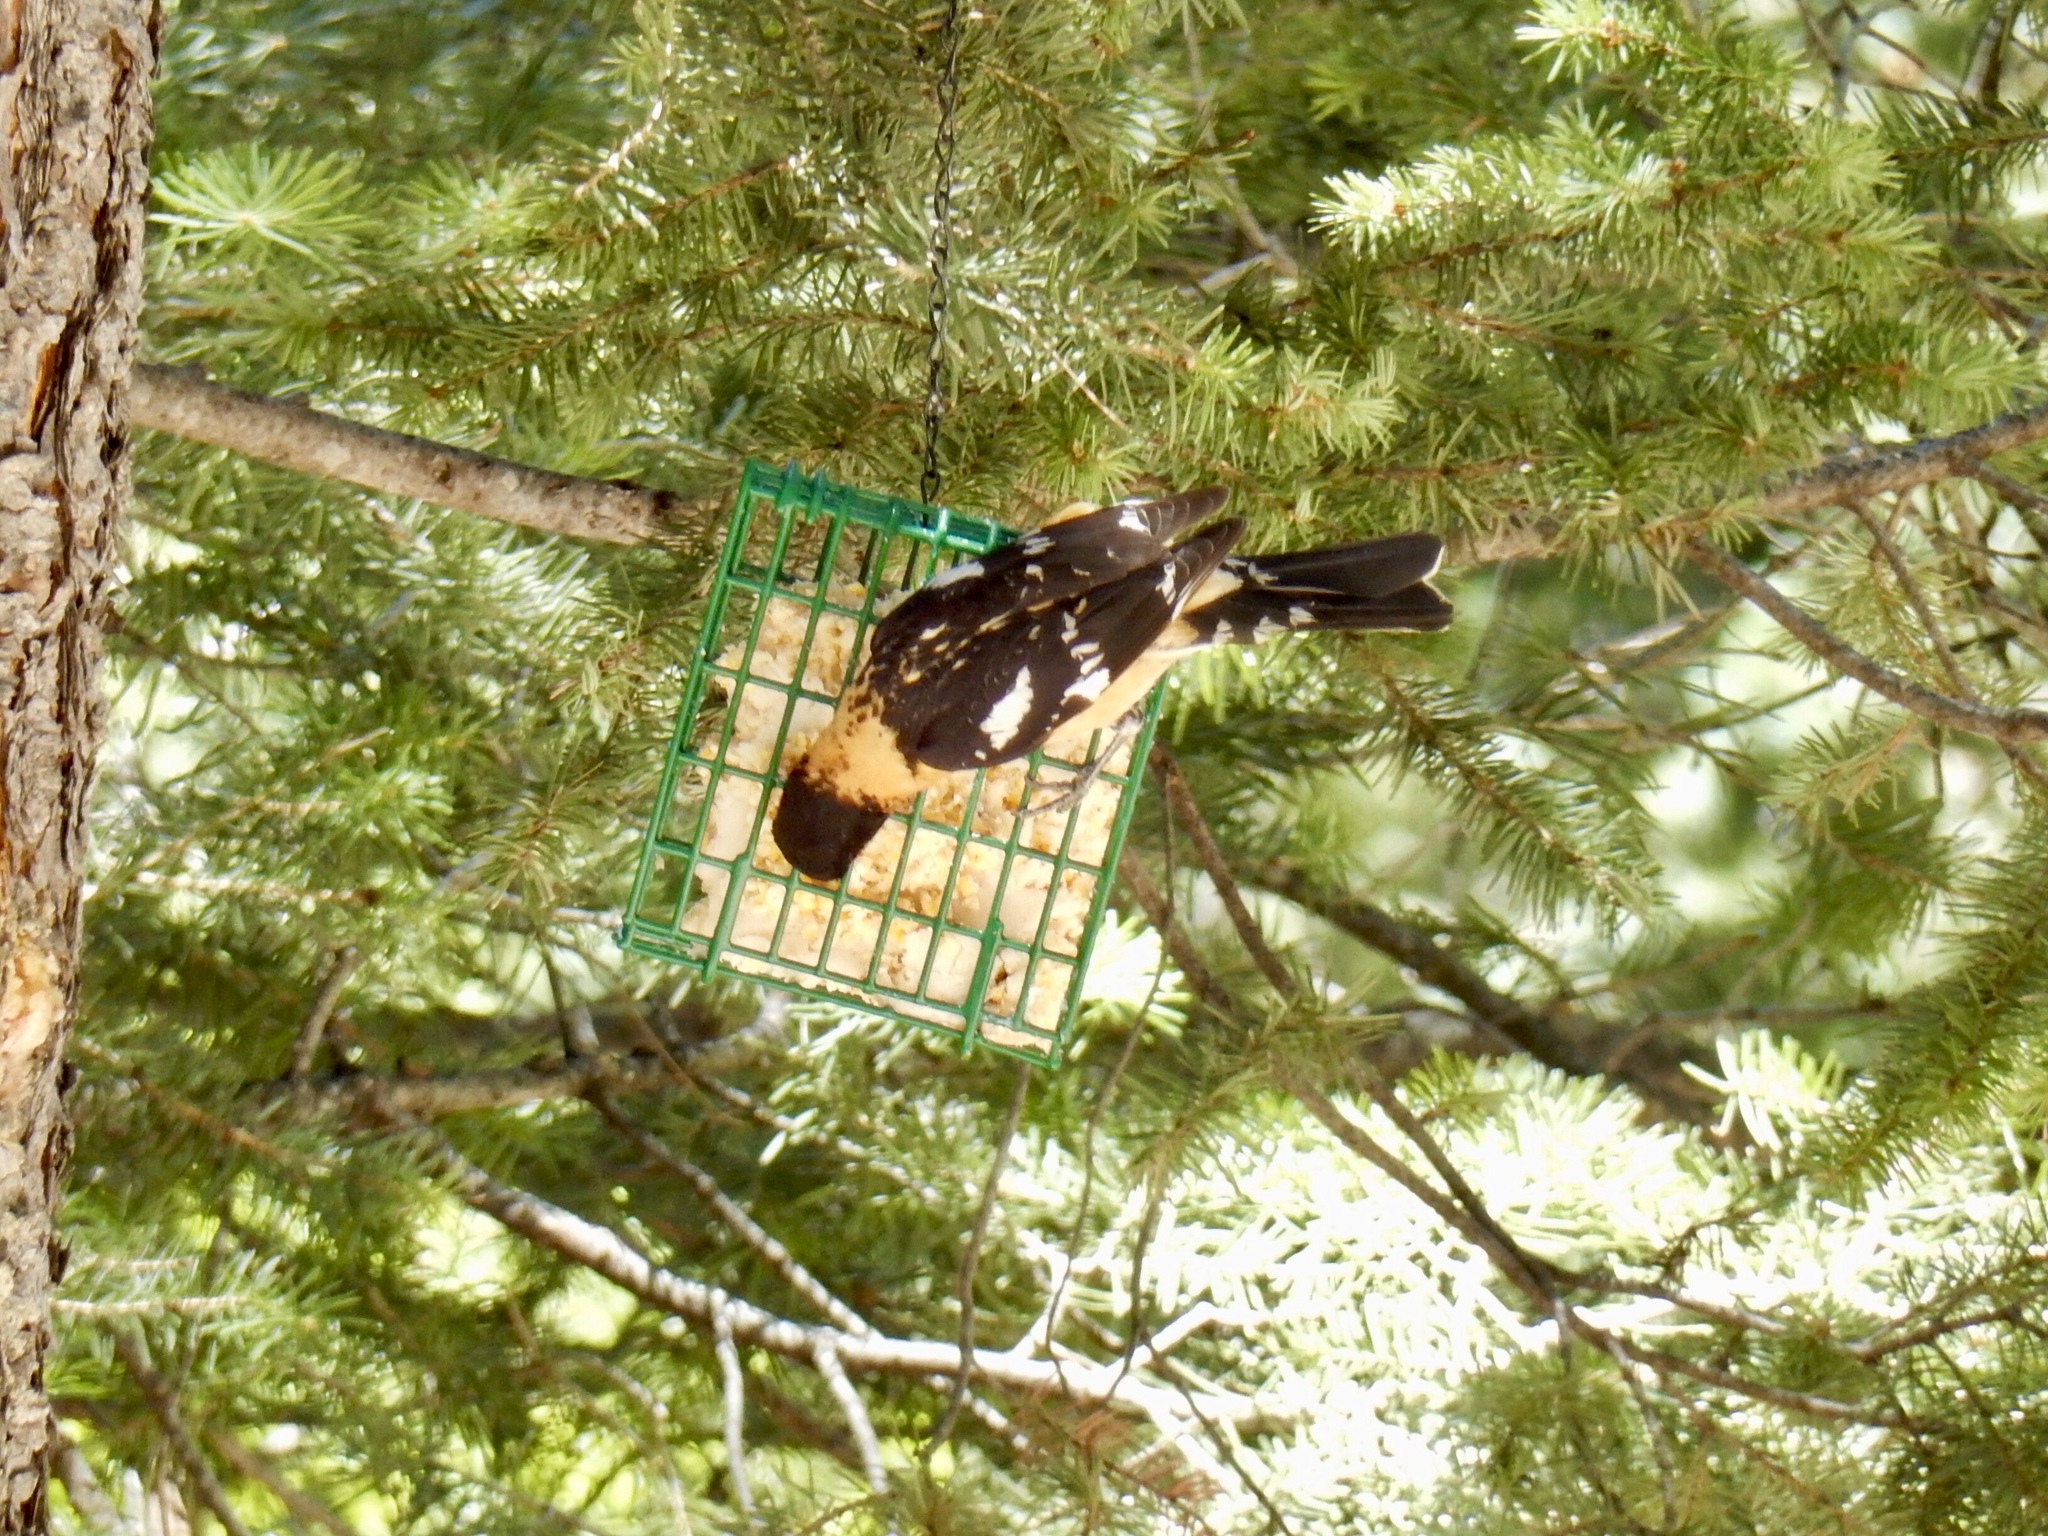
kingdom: Animalia
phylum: Chordata
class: Aves
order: Passeriformes
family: Cardinalidae
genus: Pheucticus
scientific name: Pheucticus melanocephalus
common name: Black-headed grosbeak
